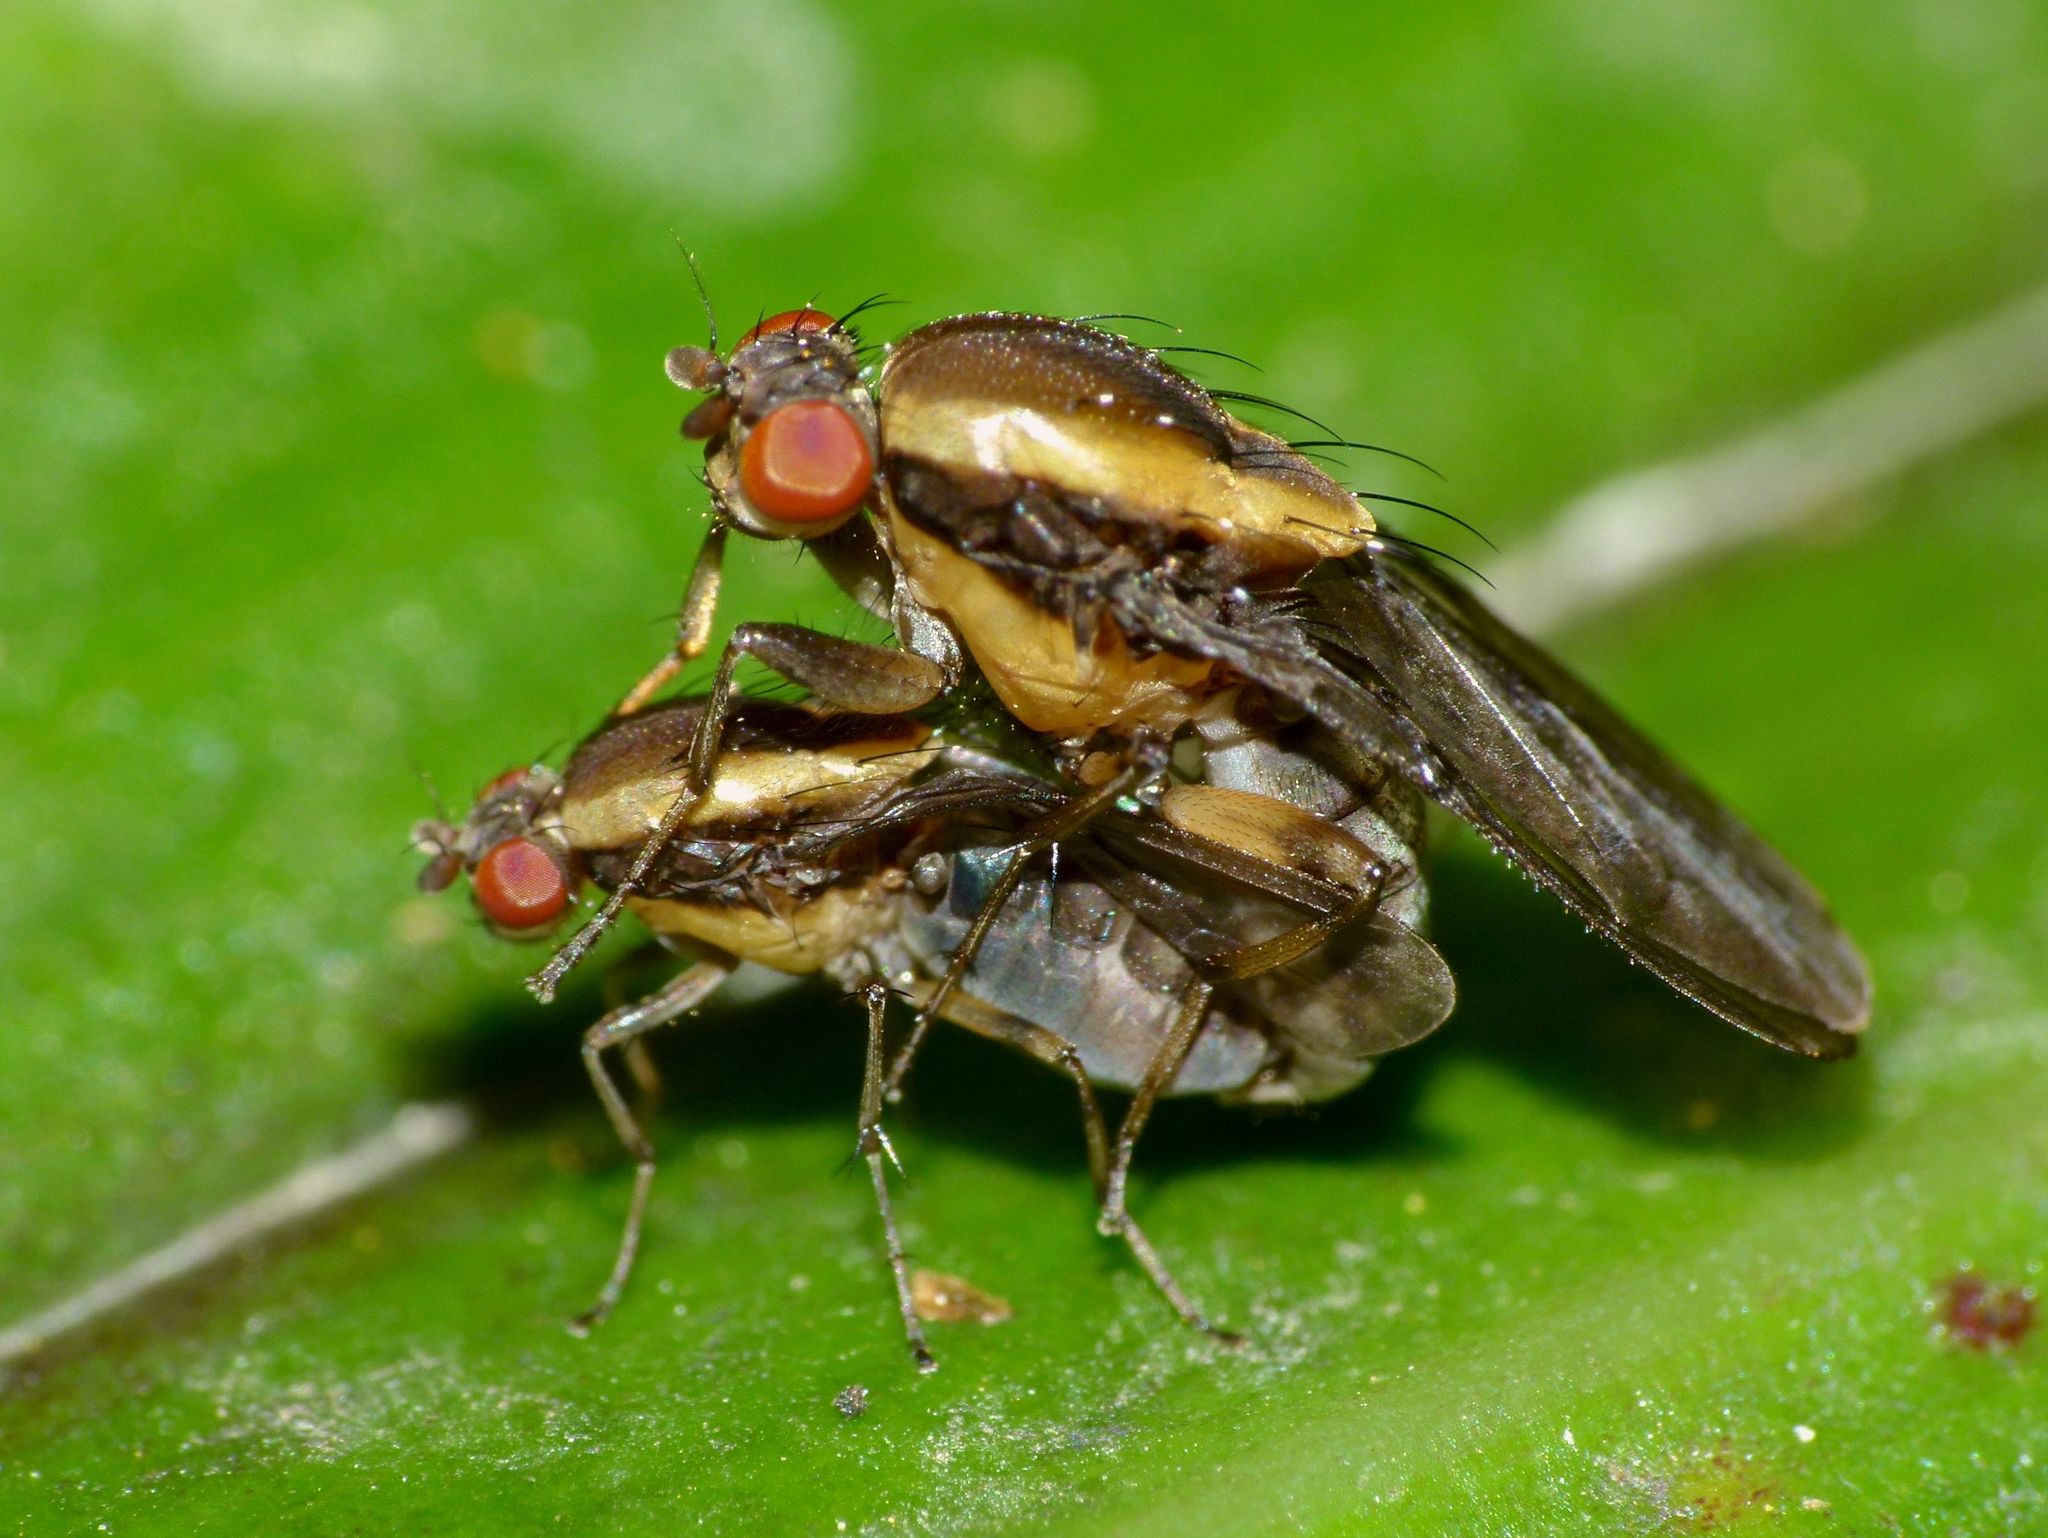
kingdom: Animalia
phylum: Arthropoda
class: Insecta
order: Diptera
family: Heleomyzidae
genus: Allophylopsis
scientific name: Allophylopsis scutellata
